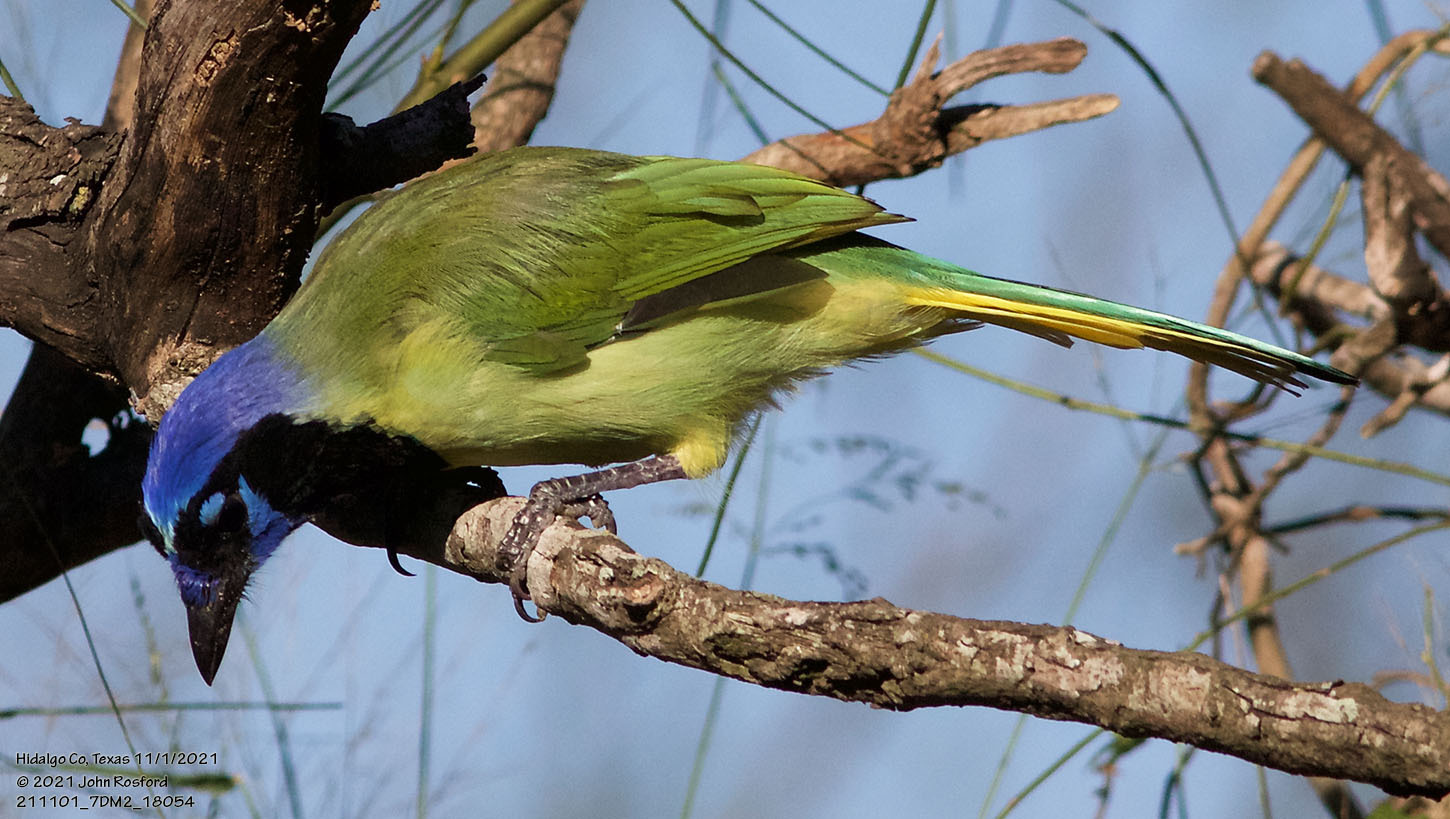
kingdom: Animalia
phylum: Chordata
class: Aves
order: Passeriformes
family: Corvidae
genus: Cyanocorax
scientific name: Cyanocorax yncas
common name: Green jay
